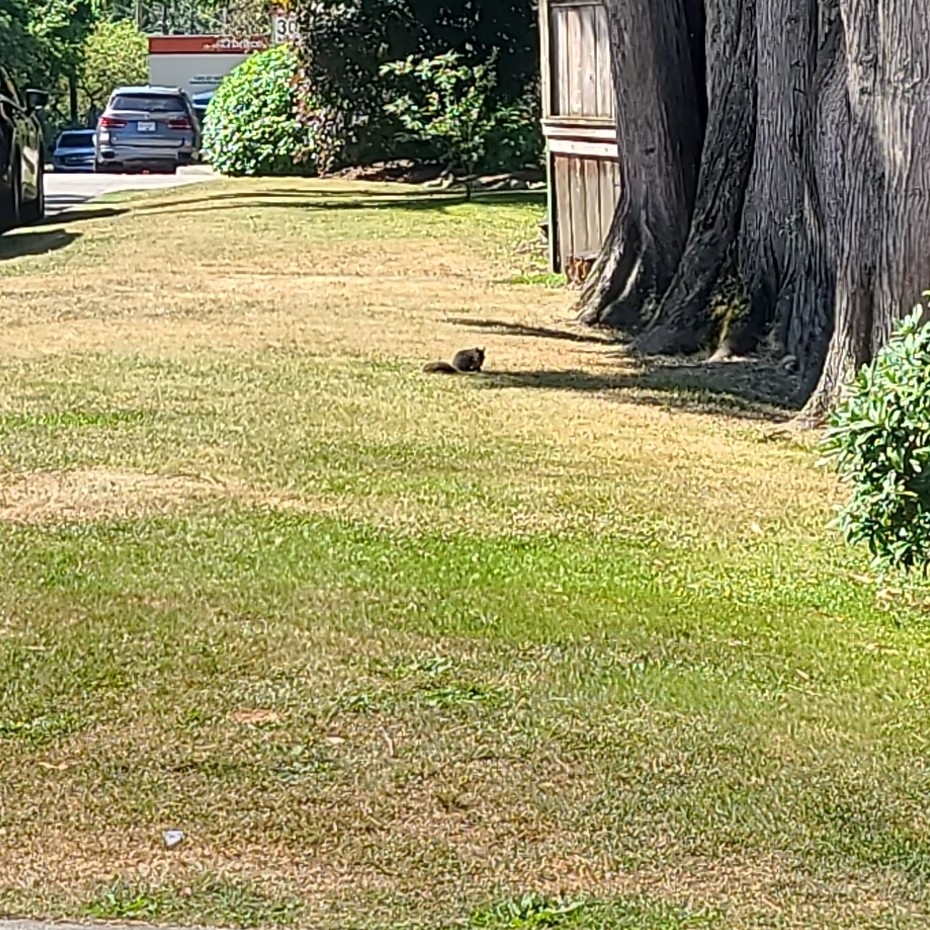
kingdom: Animalia
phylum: Chordata
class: Mammalia
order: Rodentia
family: Sciuridae
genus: Sciurus
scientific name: Sciurus carolinensis
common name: Eastern gray squirrel
